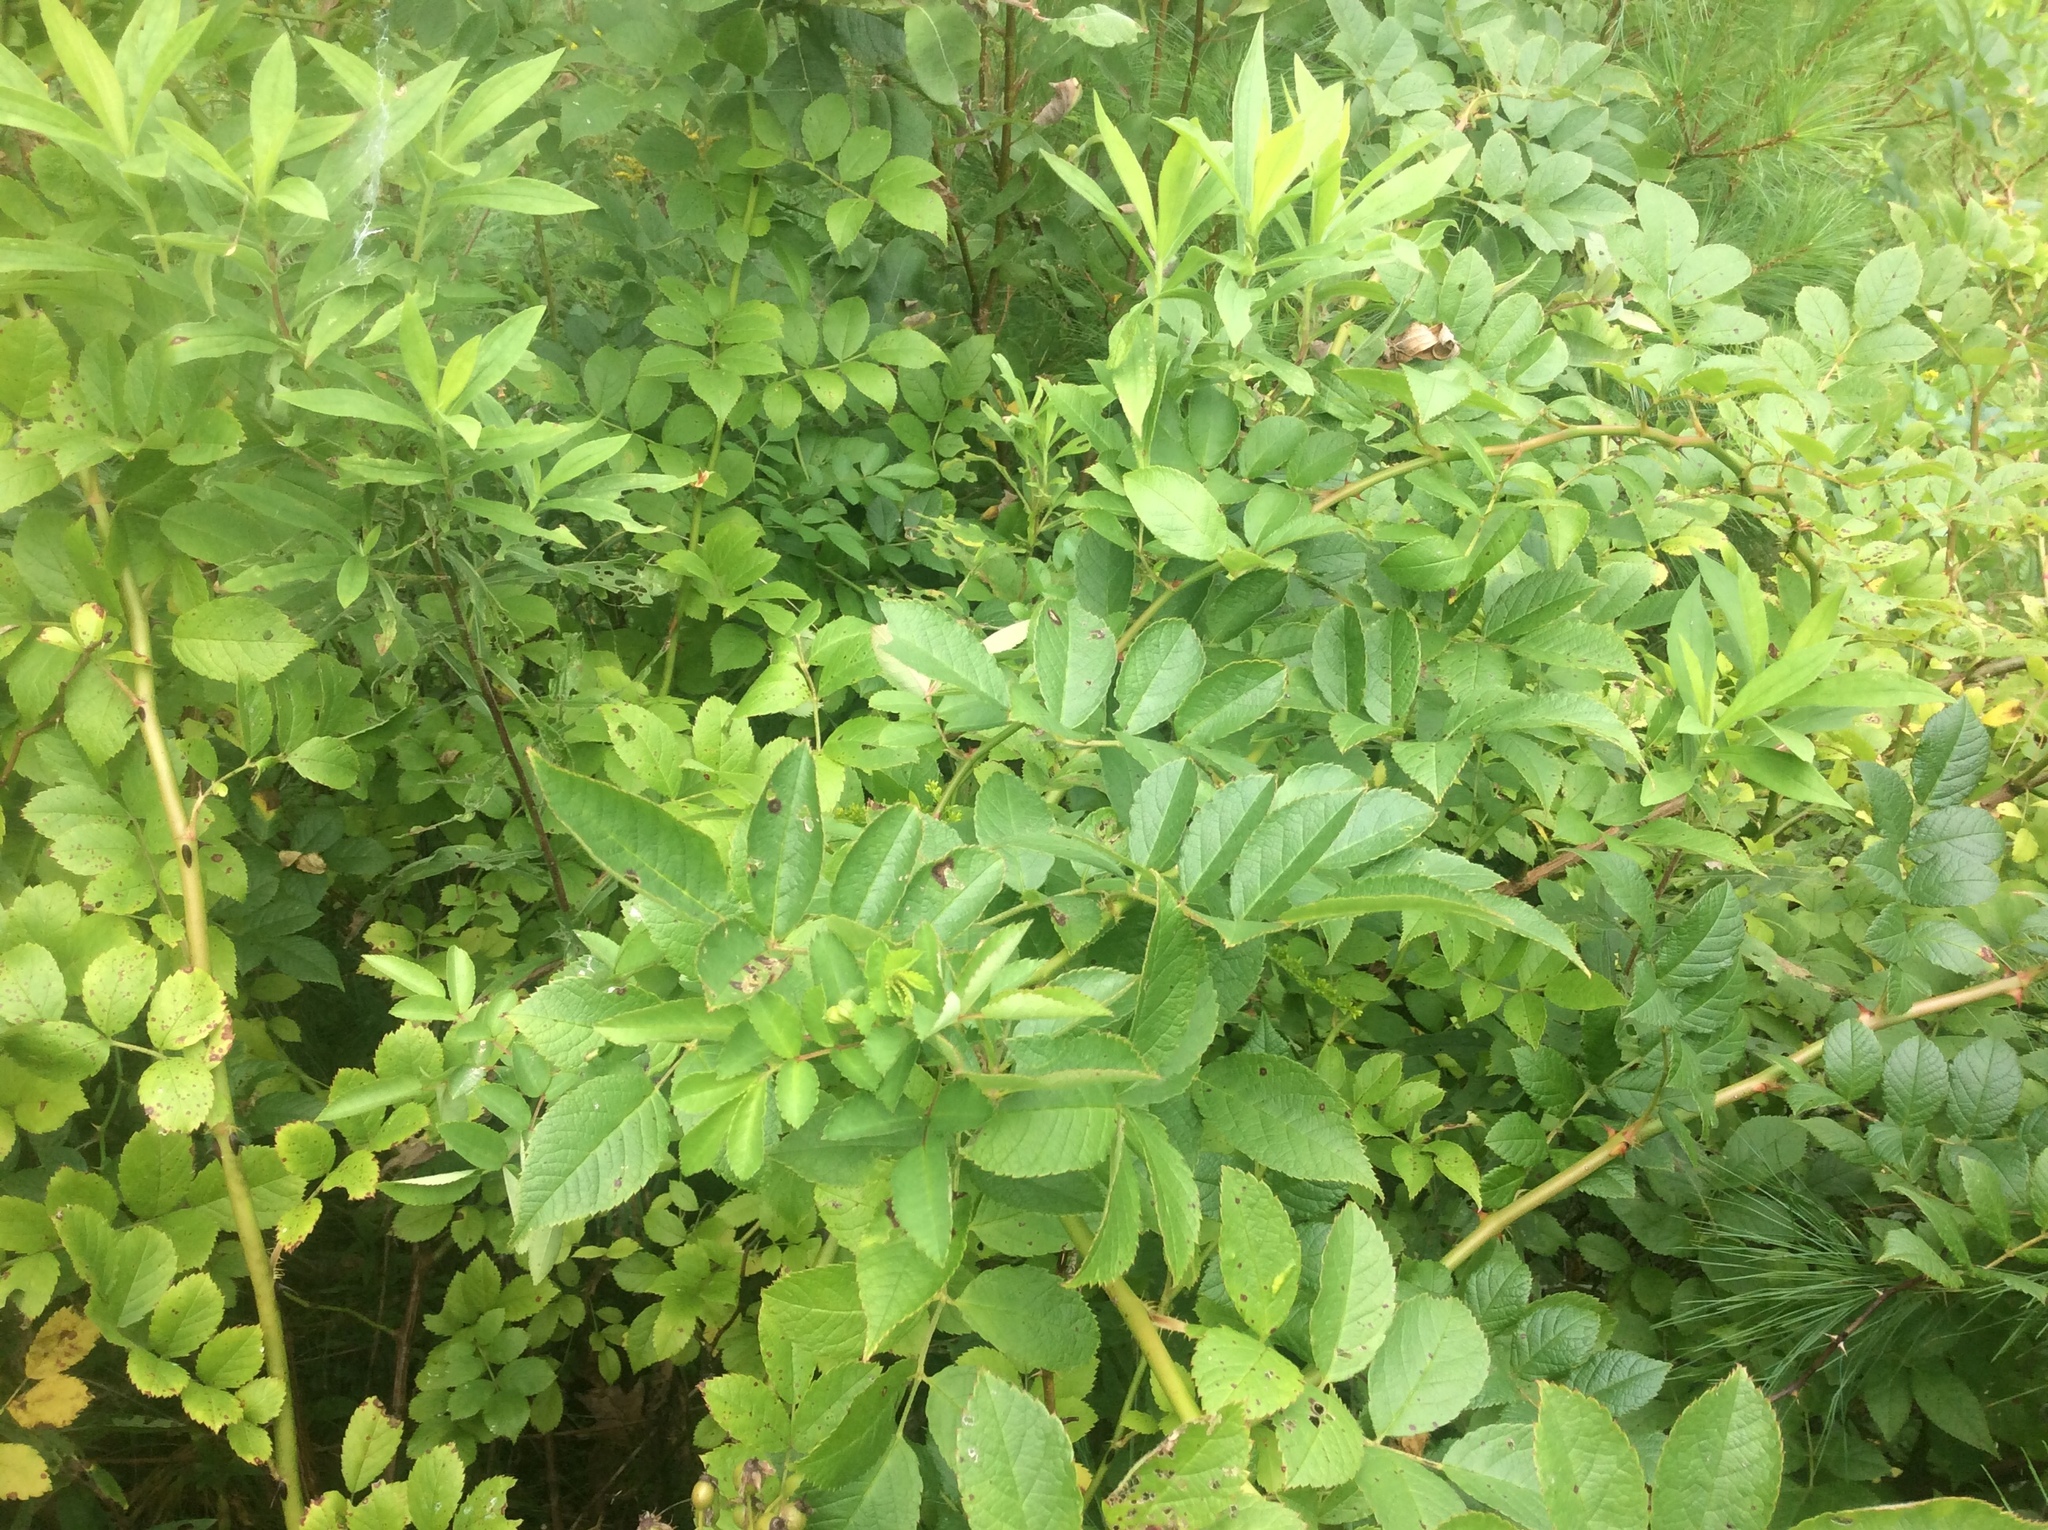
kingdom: Plantae
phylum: Tracheophyta
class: Magnoliopsida
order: Rosales
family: Rosaceae
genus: Rosa
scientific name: Rosa multiflora
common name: Multiflora rose
